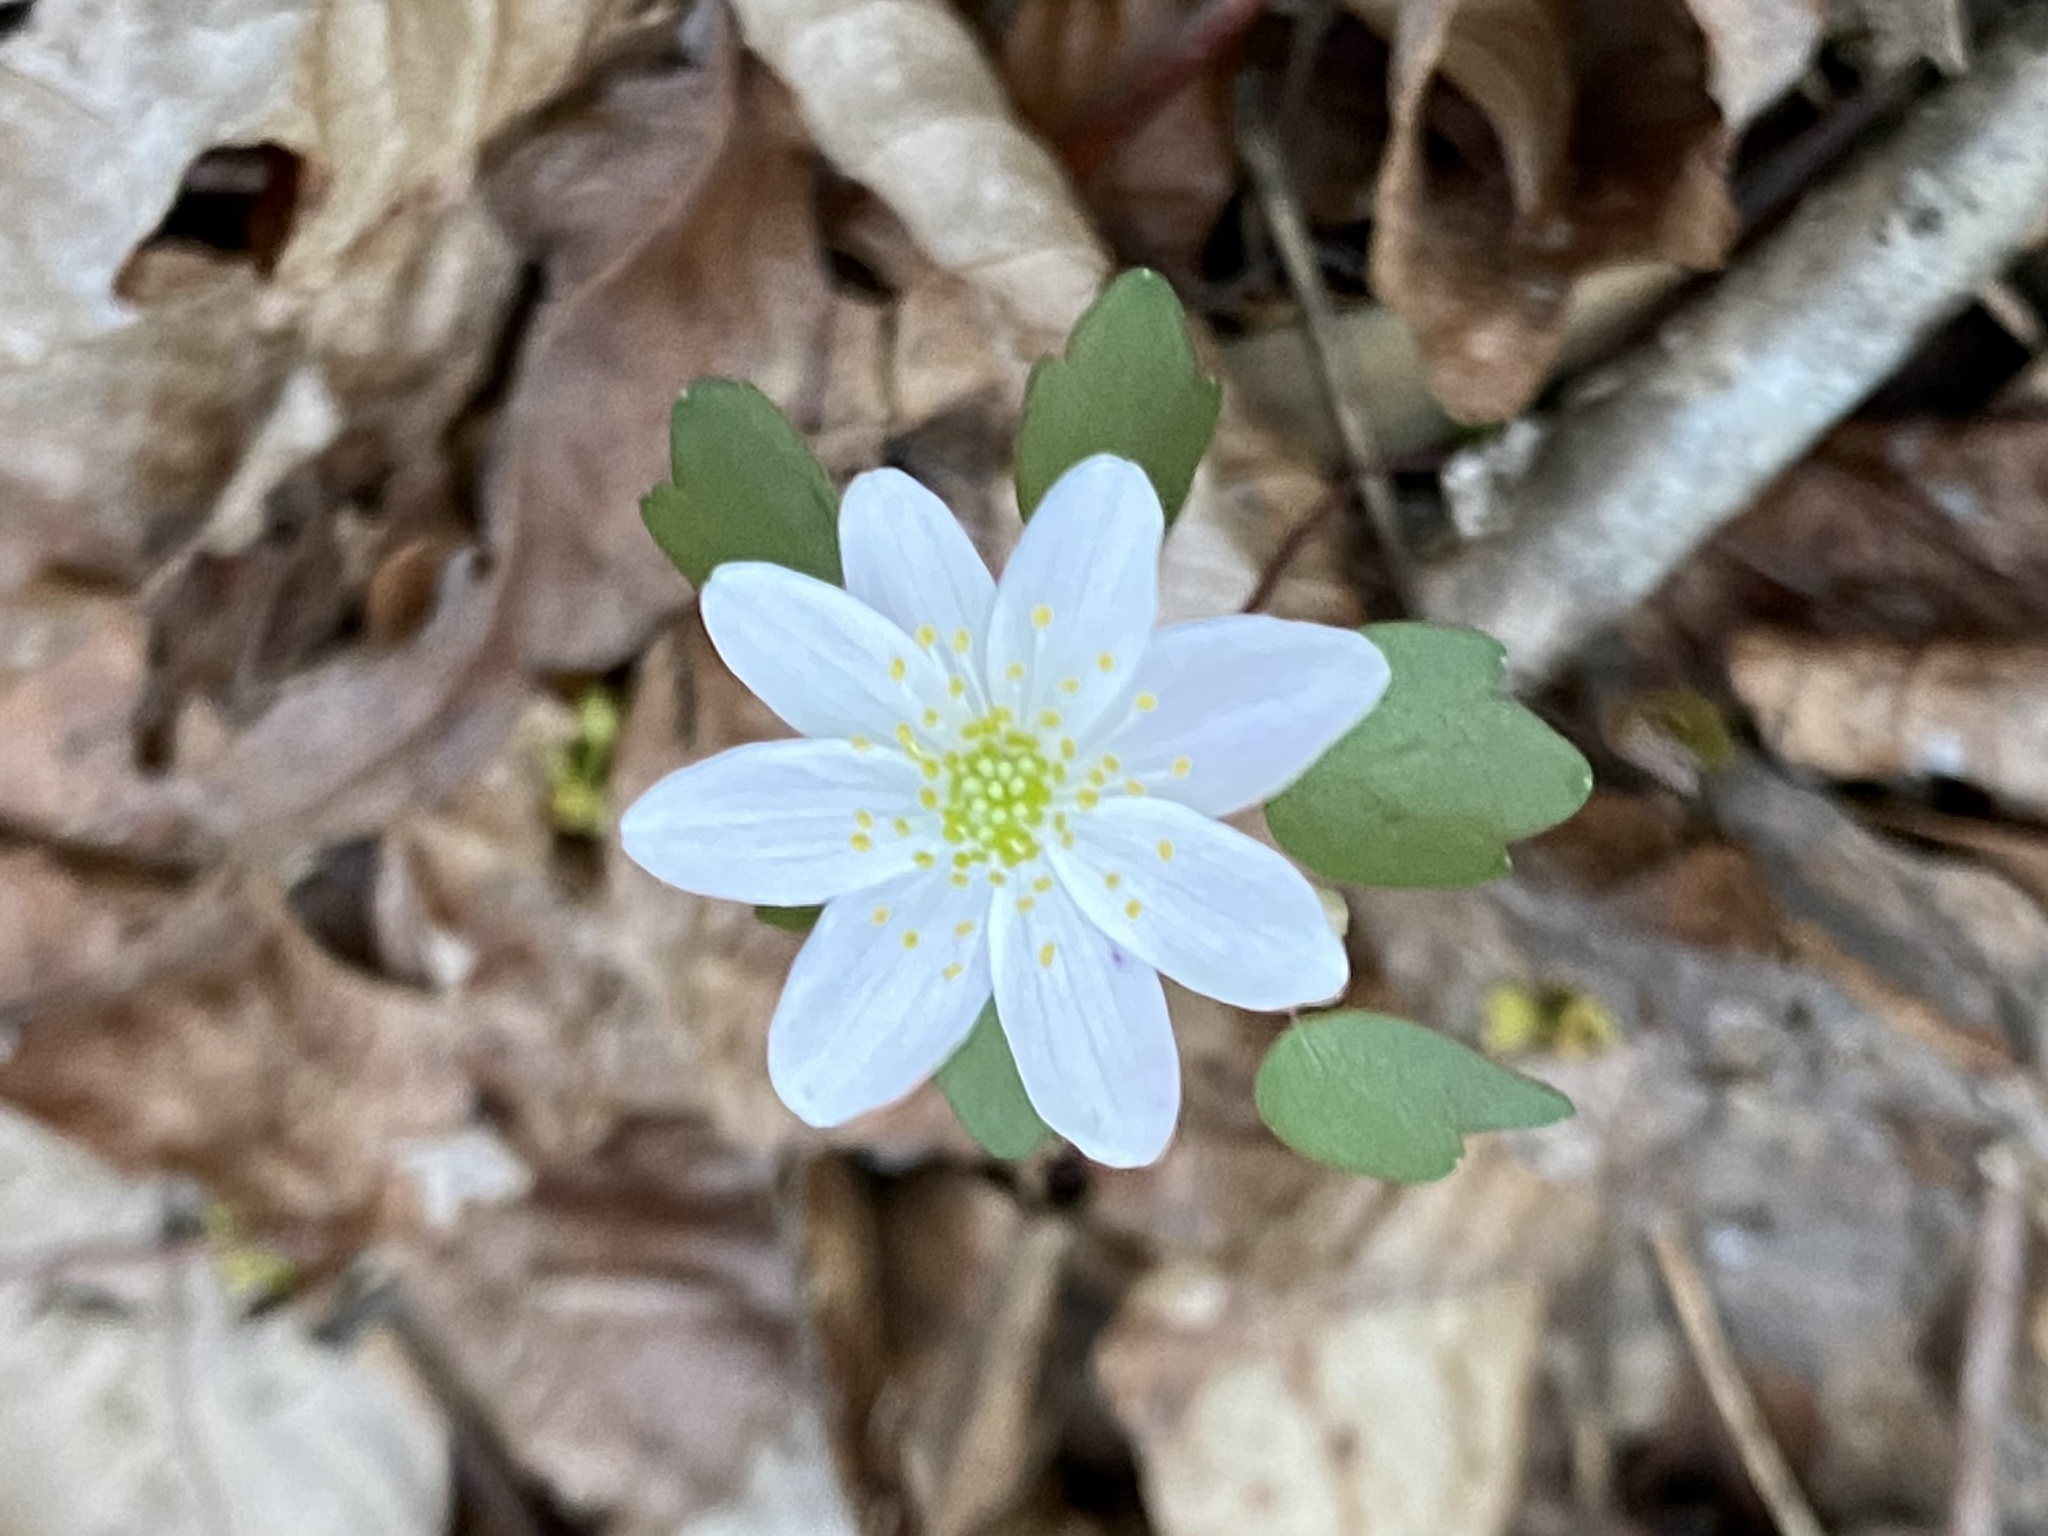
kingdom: Plantae
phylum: Tracheophyta
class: Magnoliopsida
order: Ranunculales
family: Ranunculaceae
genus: Thalictrum
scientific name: Thalictrum thalictroides
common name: Rue-anemone
